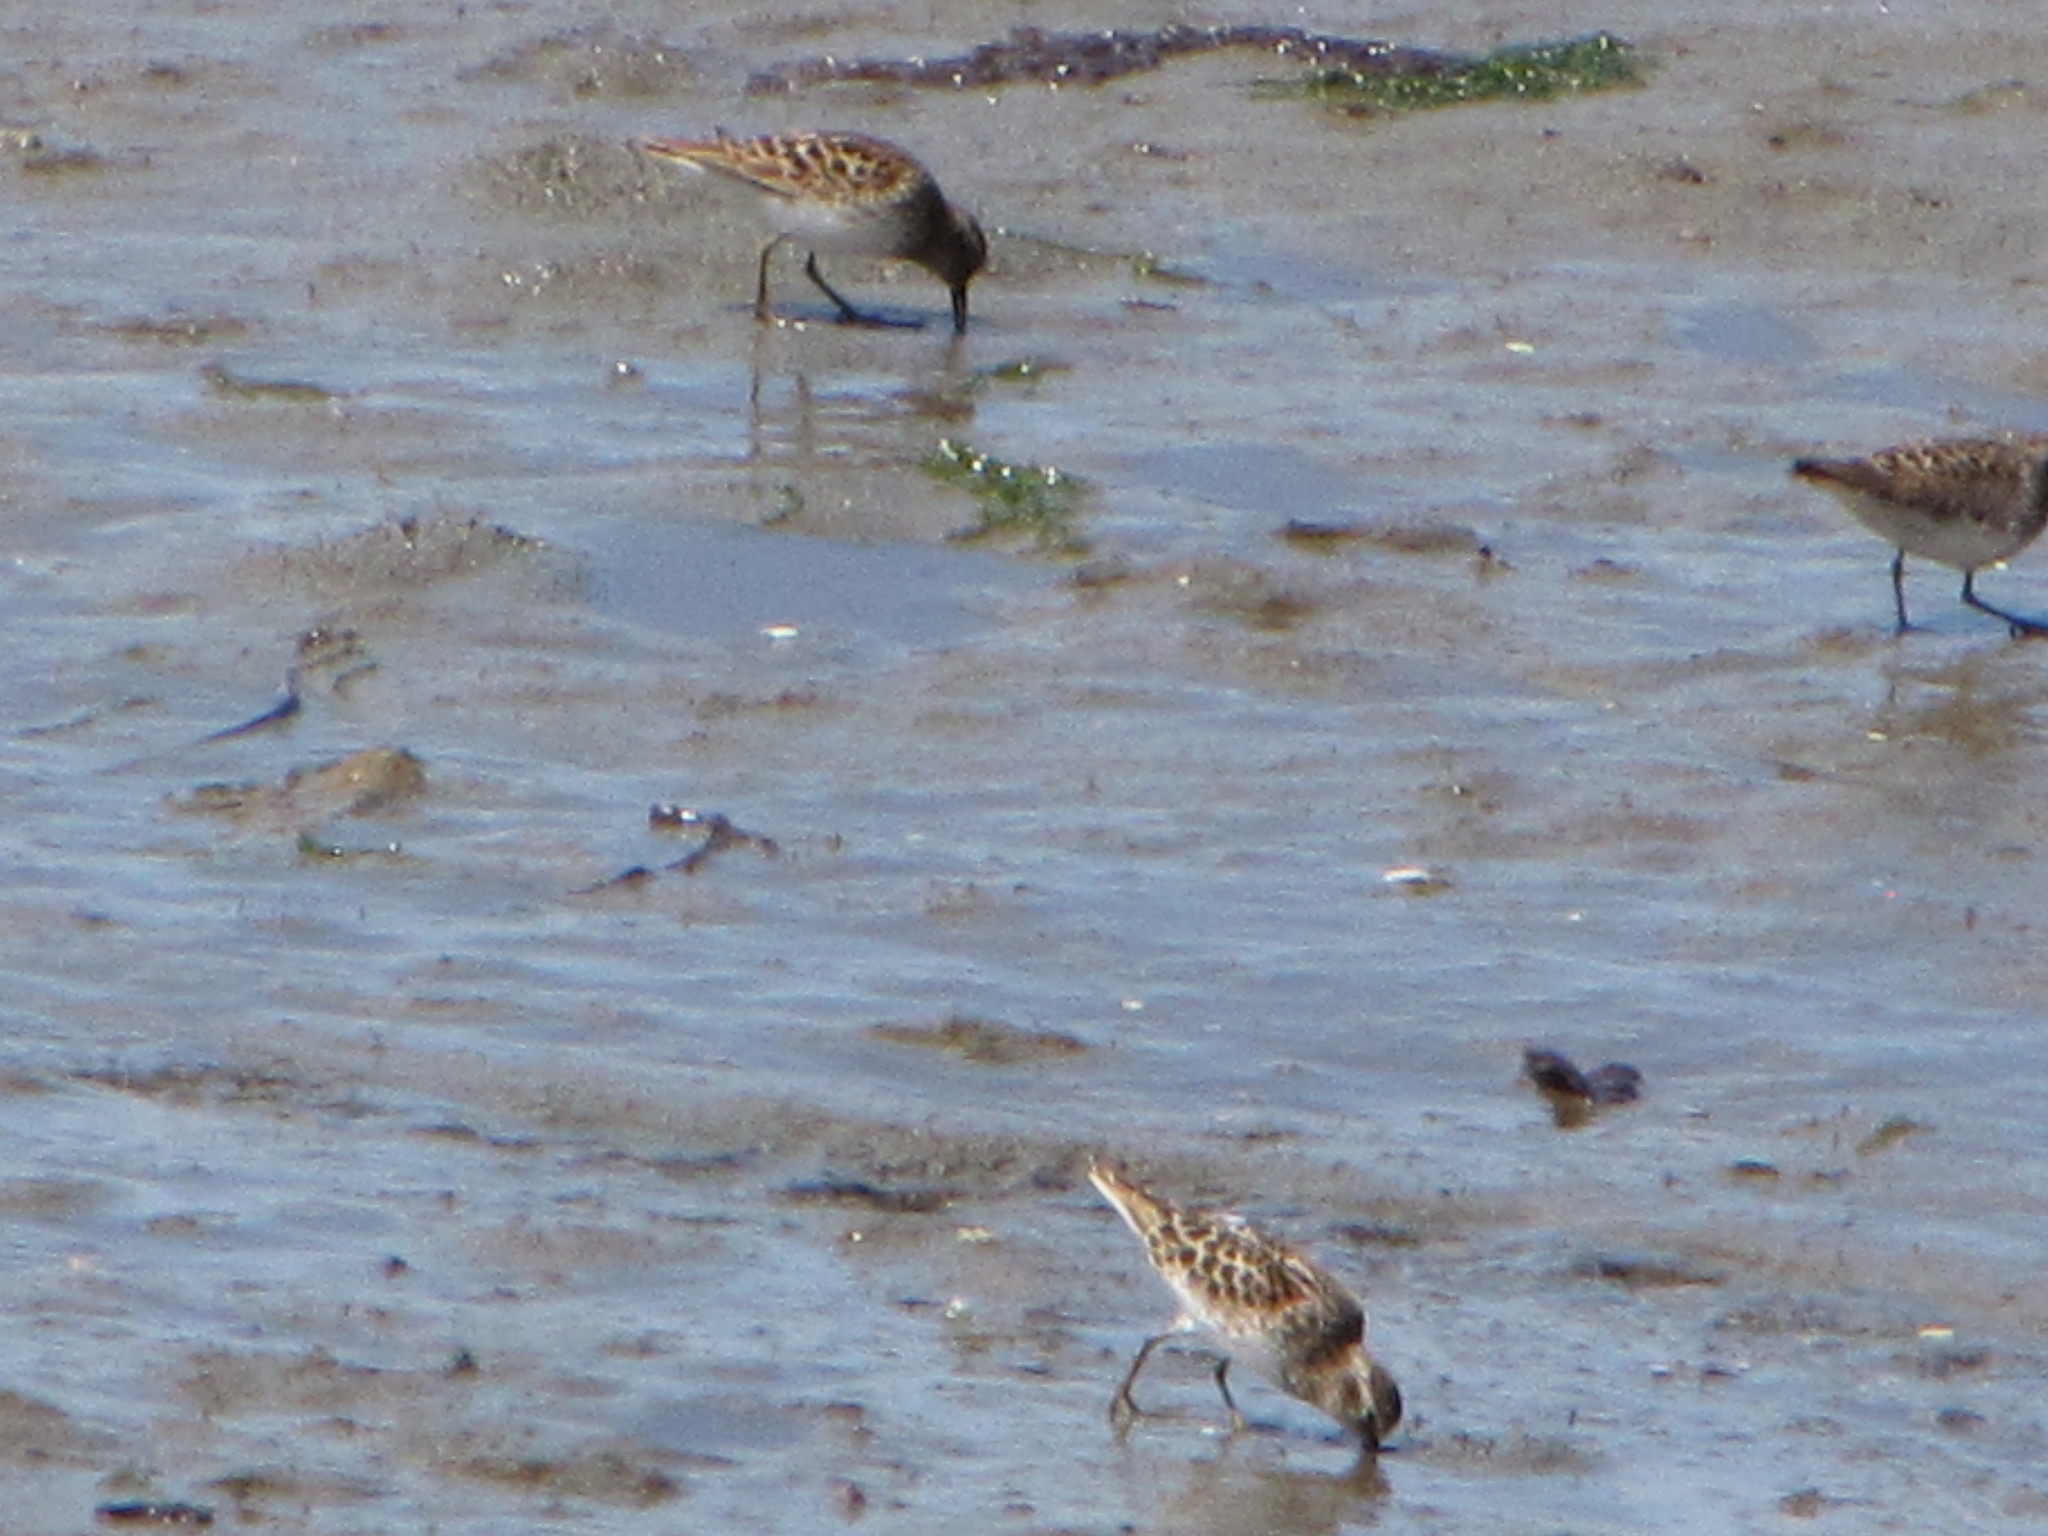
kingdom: Animalia
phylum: Chordata
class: Aves
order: Charadriiformes
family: Scolopacidae
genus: Calidris
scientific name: Calidris minutilla
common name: Least sandpiper
